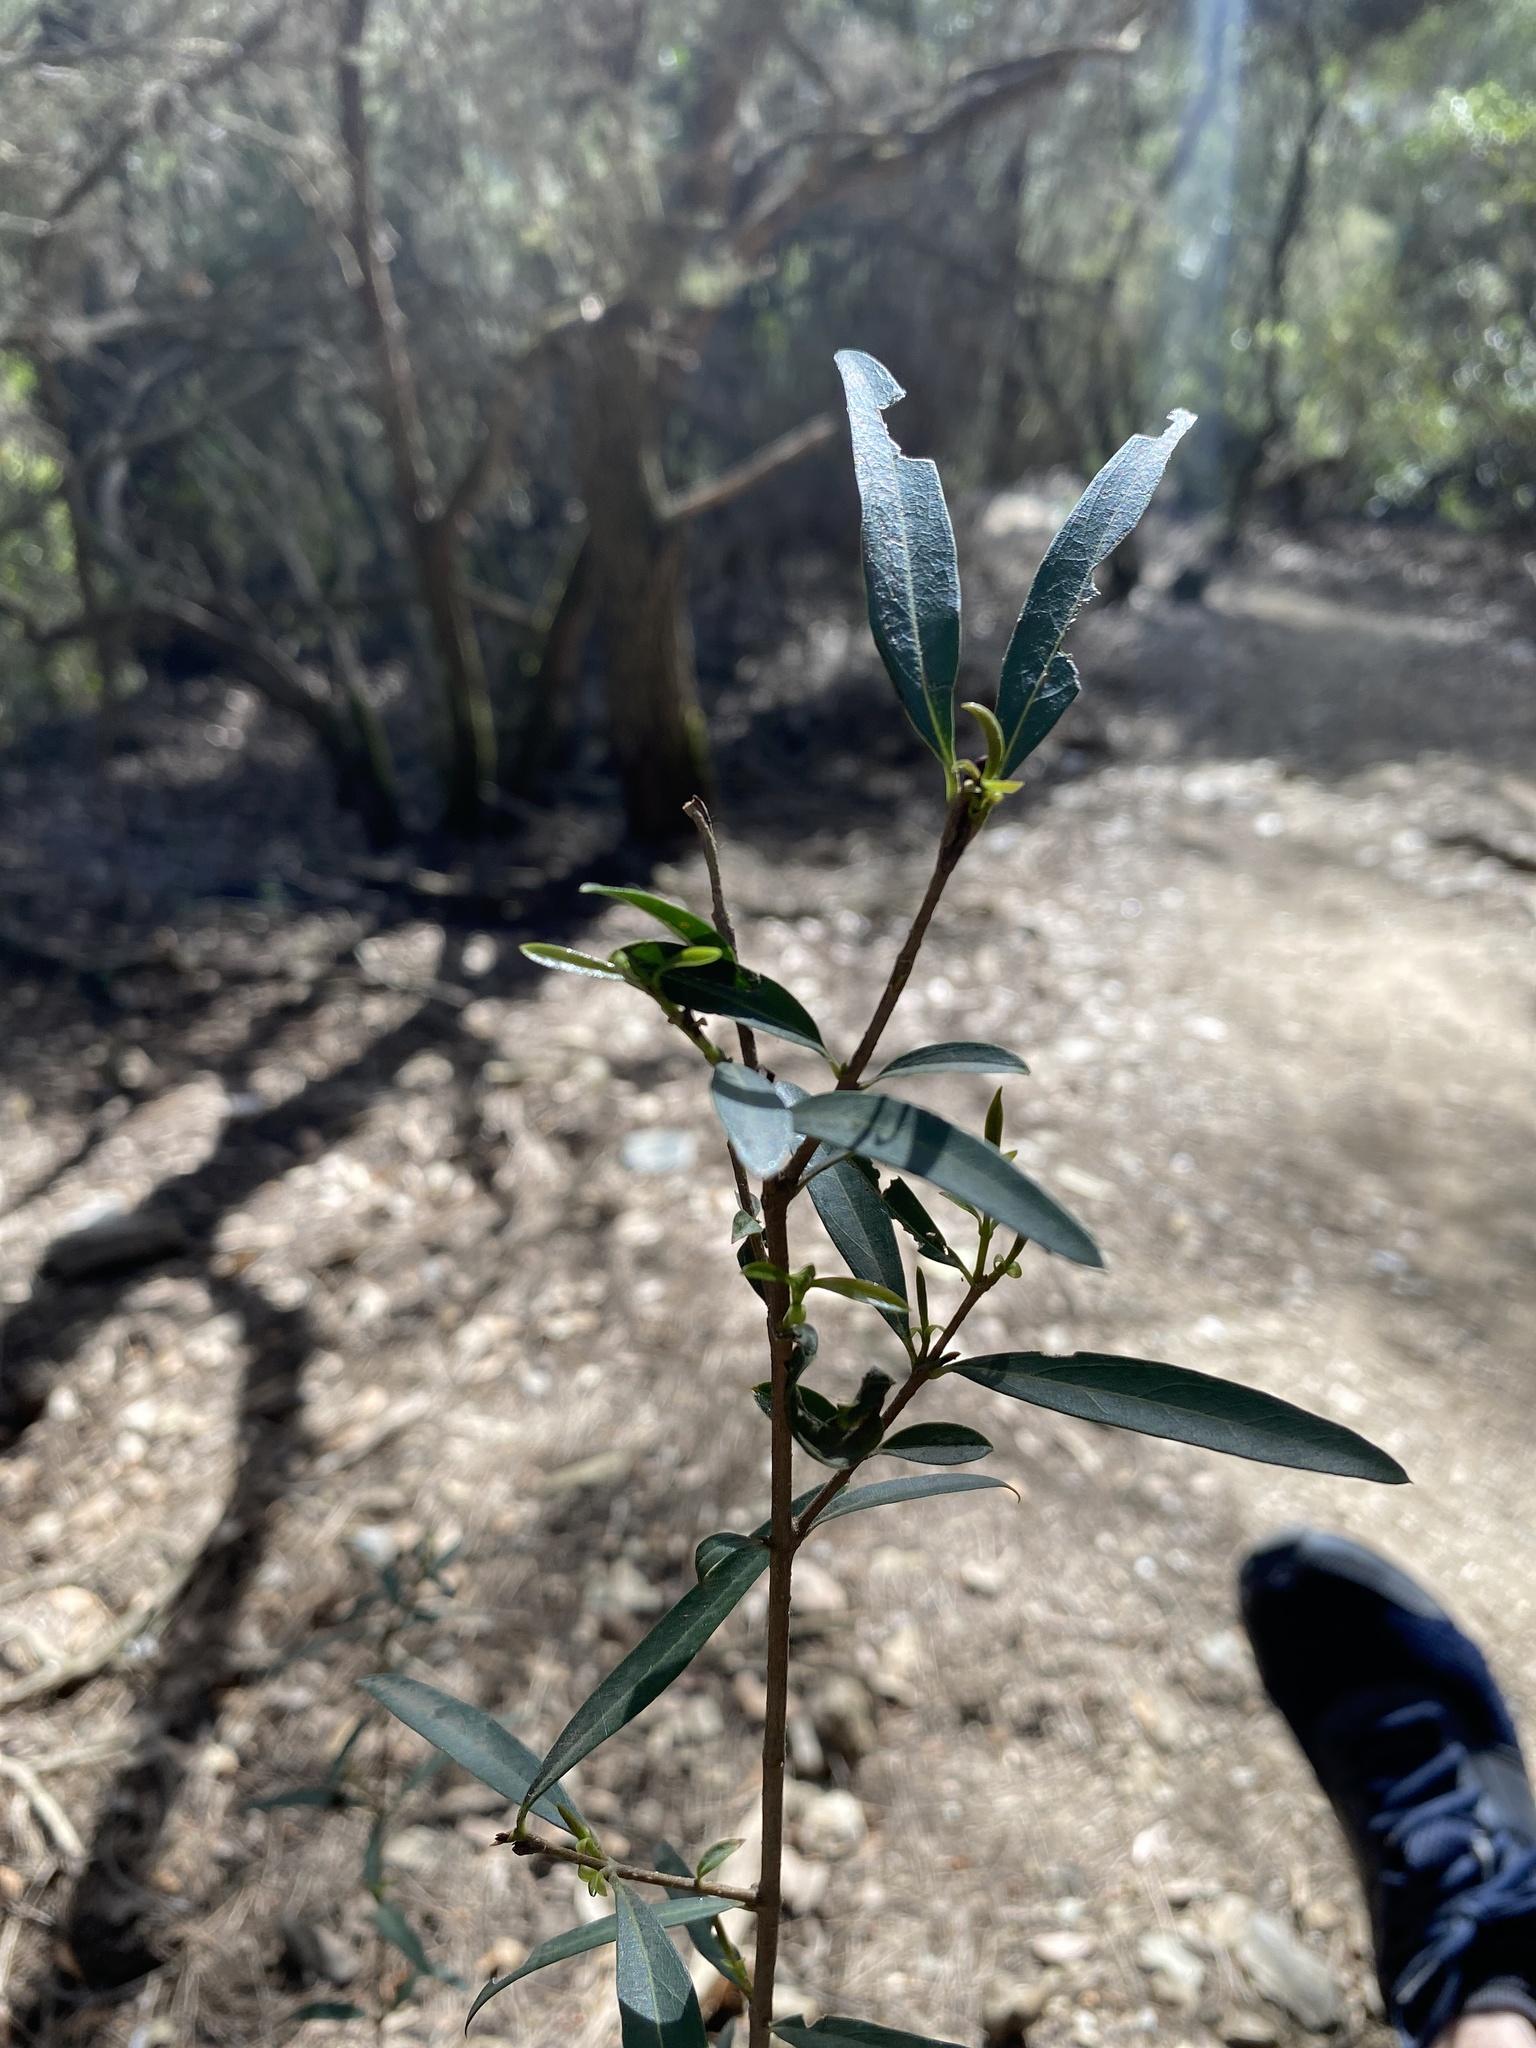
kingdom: Plantae
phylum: Tracheophyta
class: Magnoliopsida
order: Lamiales
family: Oleaceae
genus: Phillyrea
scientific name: Phillyrea angustifolia
